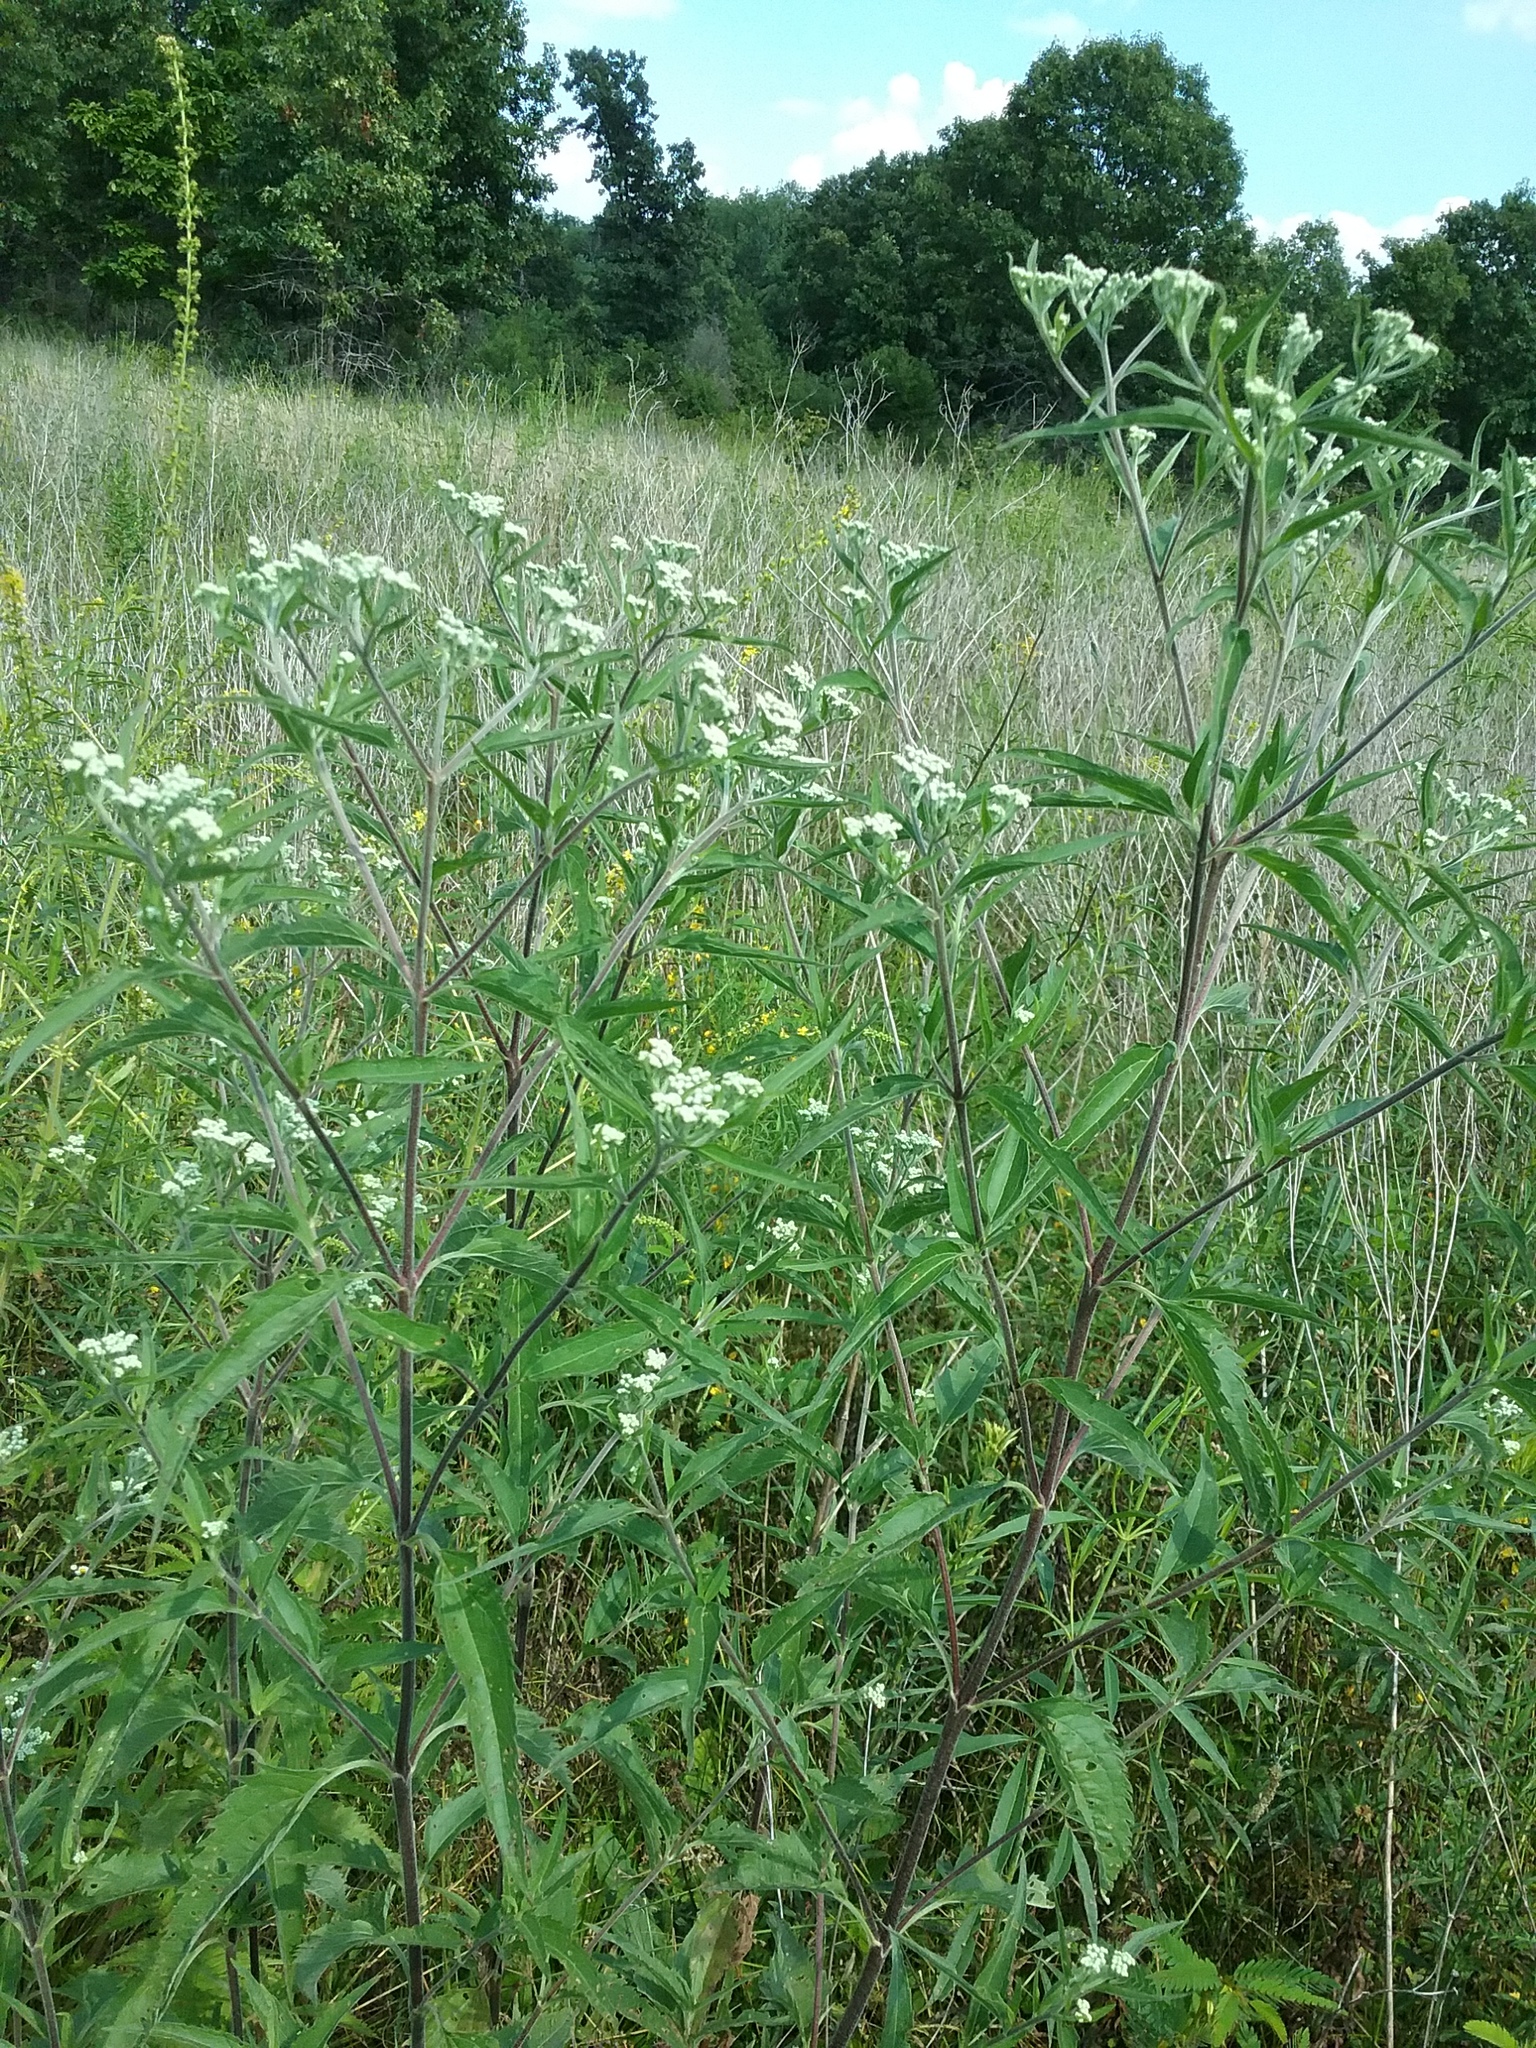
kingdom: Plantae
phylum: Tracheophyta
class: Magnoliopsida
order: Asterales
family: Asteraceae
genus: Eupatorium
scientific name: Eupatorium serotinum
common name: Late boneset
